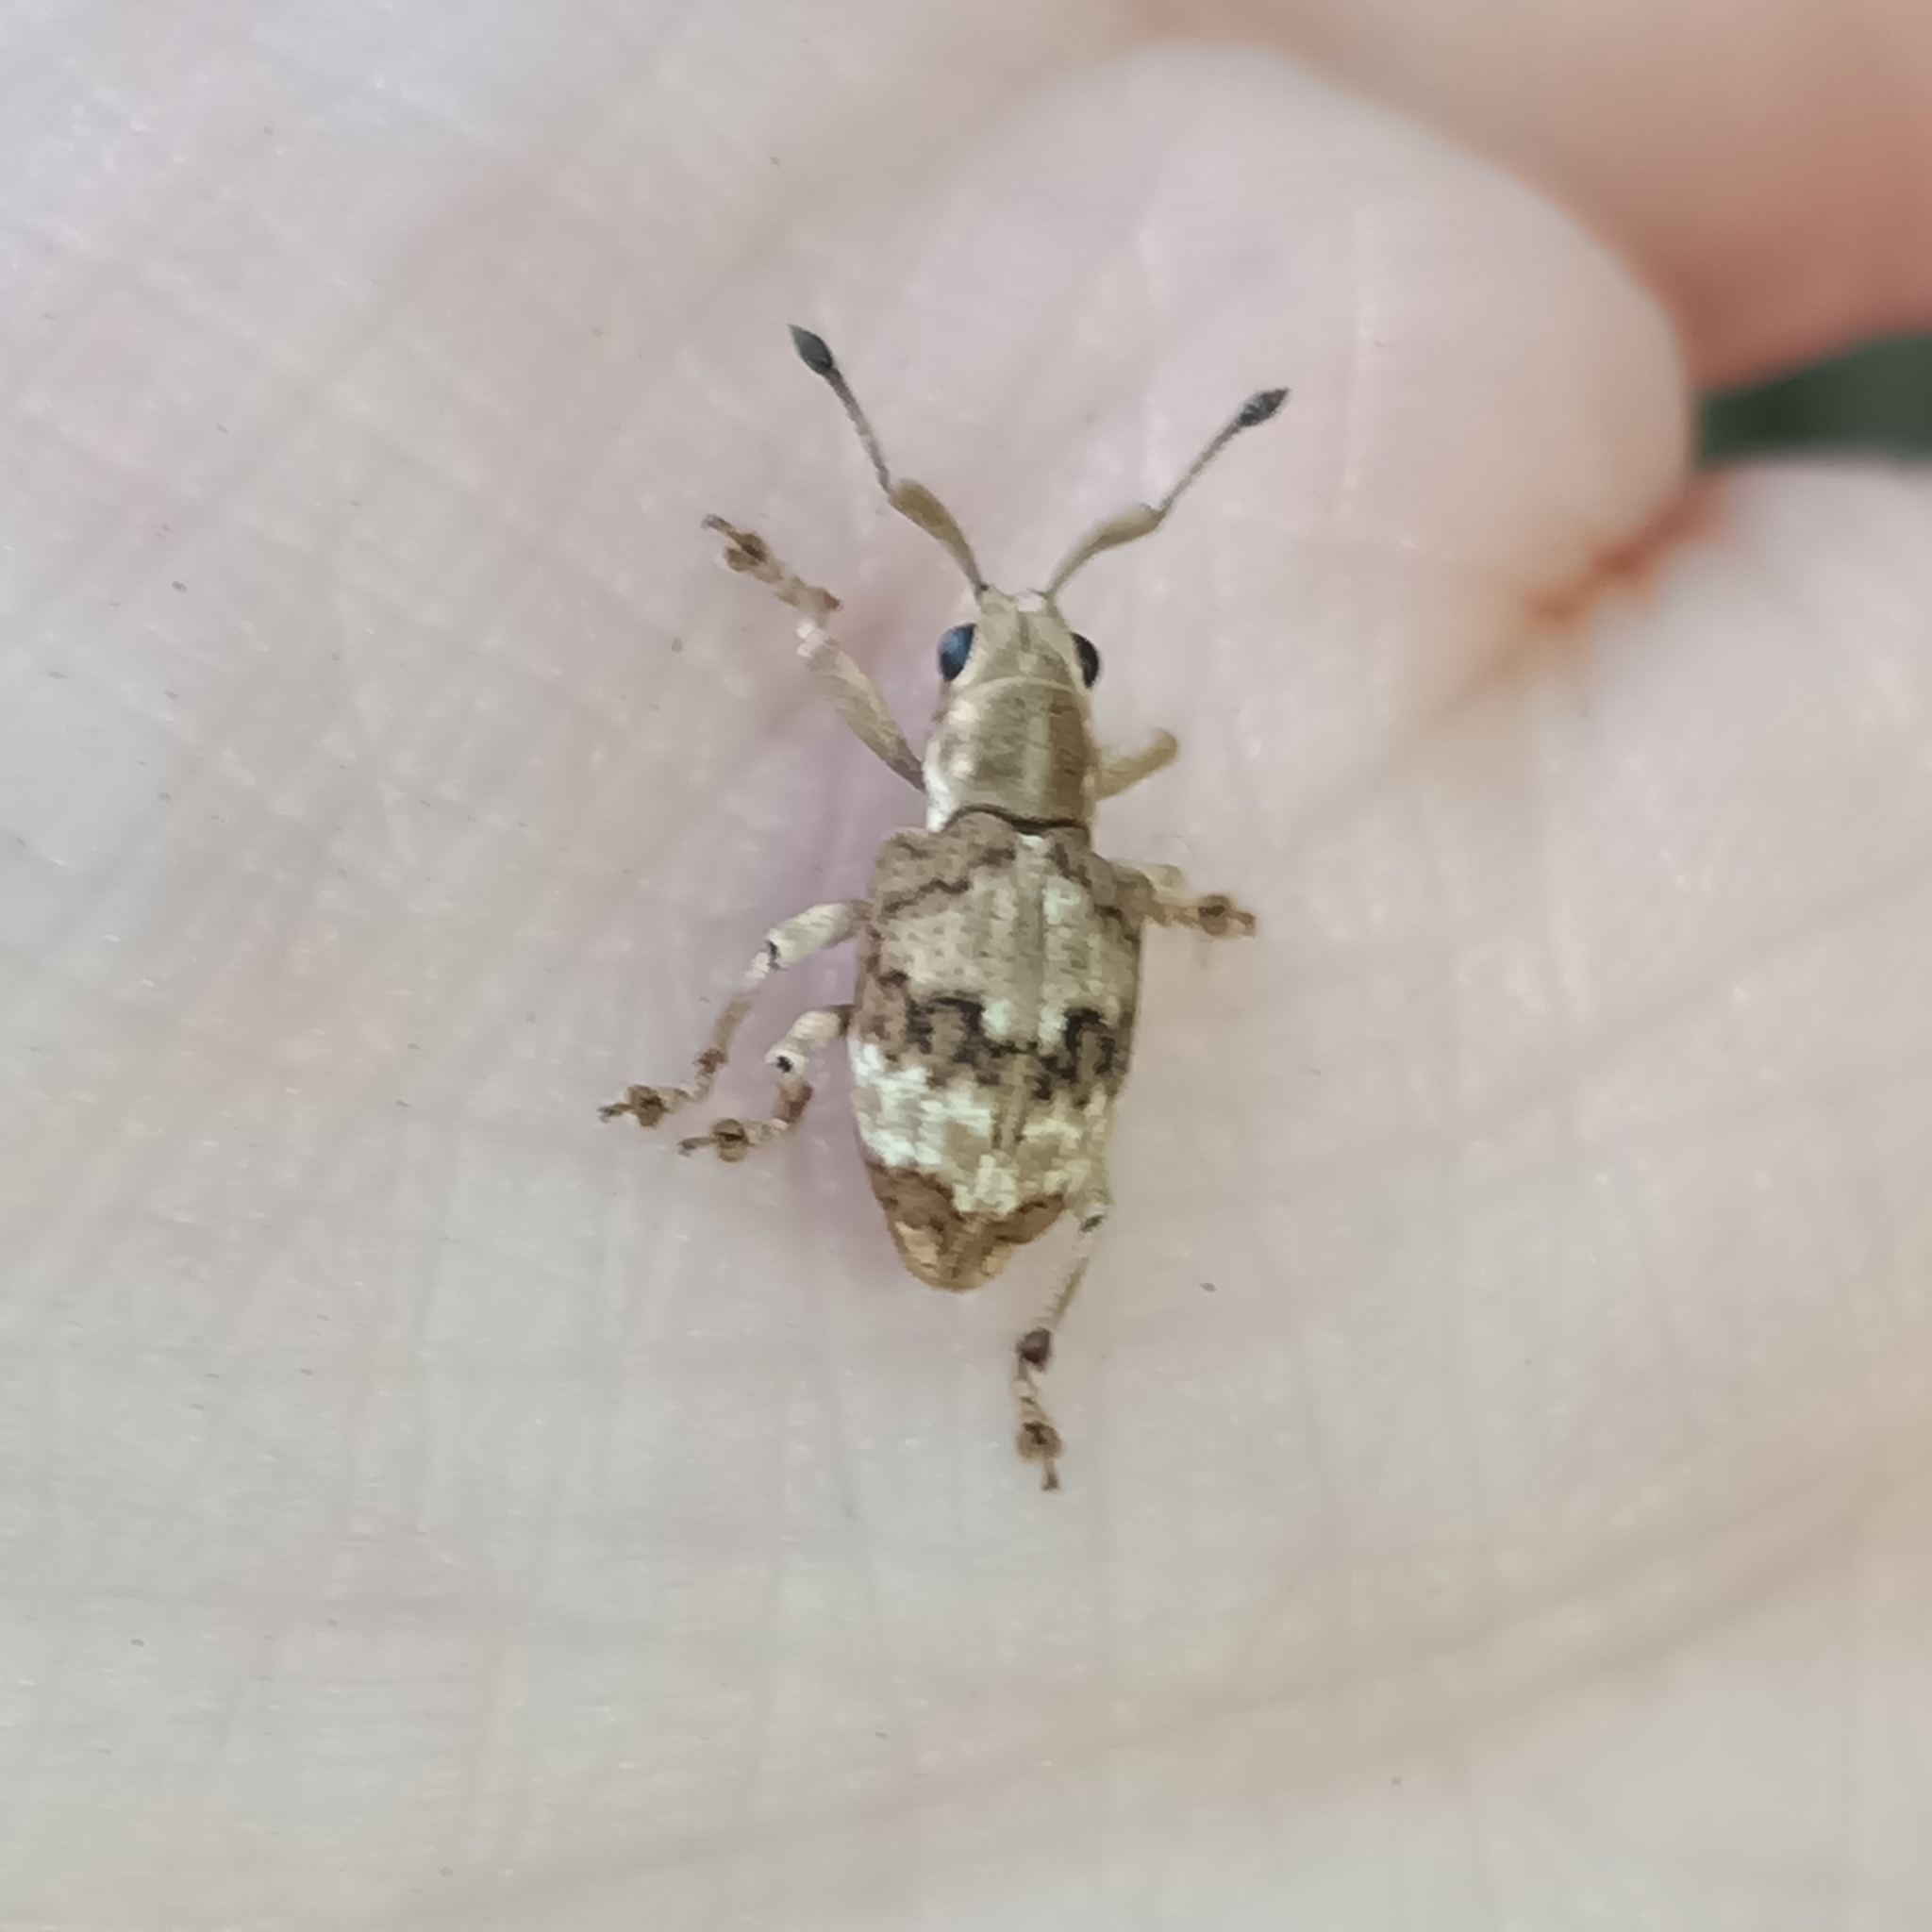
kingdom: Animalia
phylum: Arthropoda
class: Insecta
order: Coleoptera
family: Curculionidae
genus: Pseudocyphus
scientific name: Pseudocyphus marmoratus
